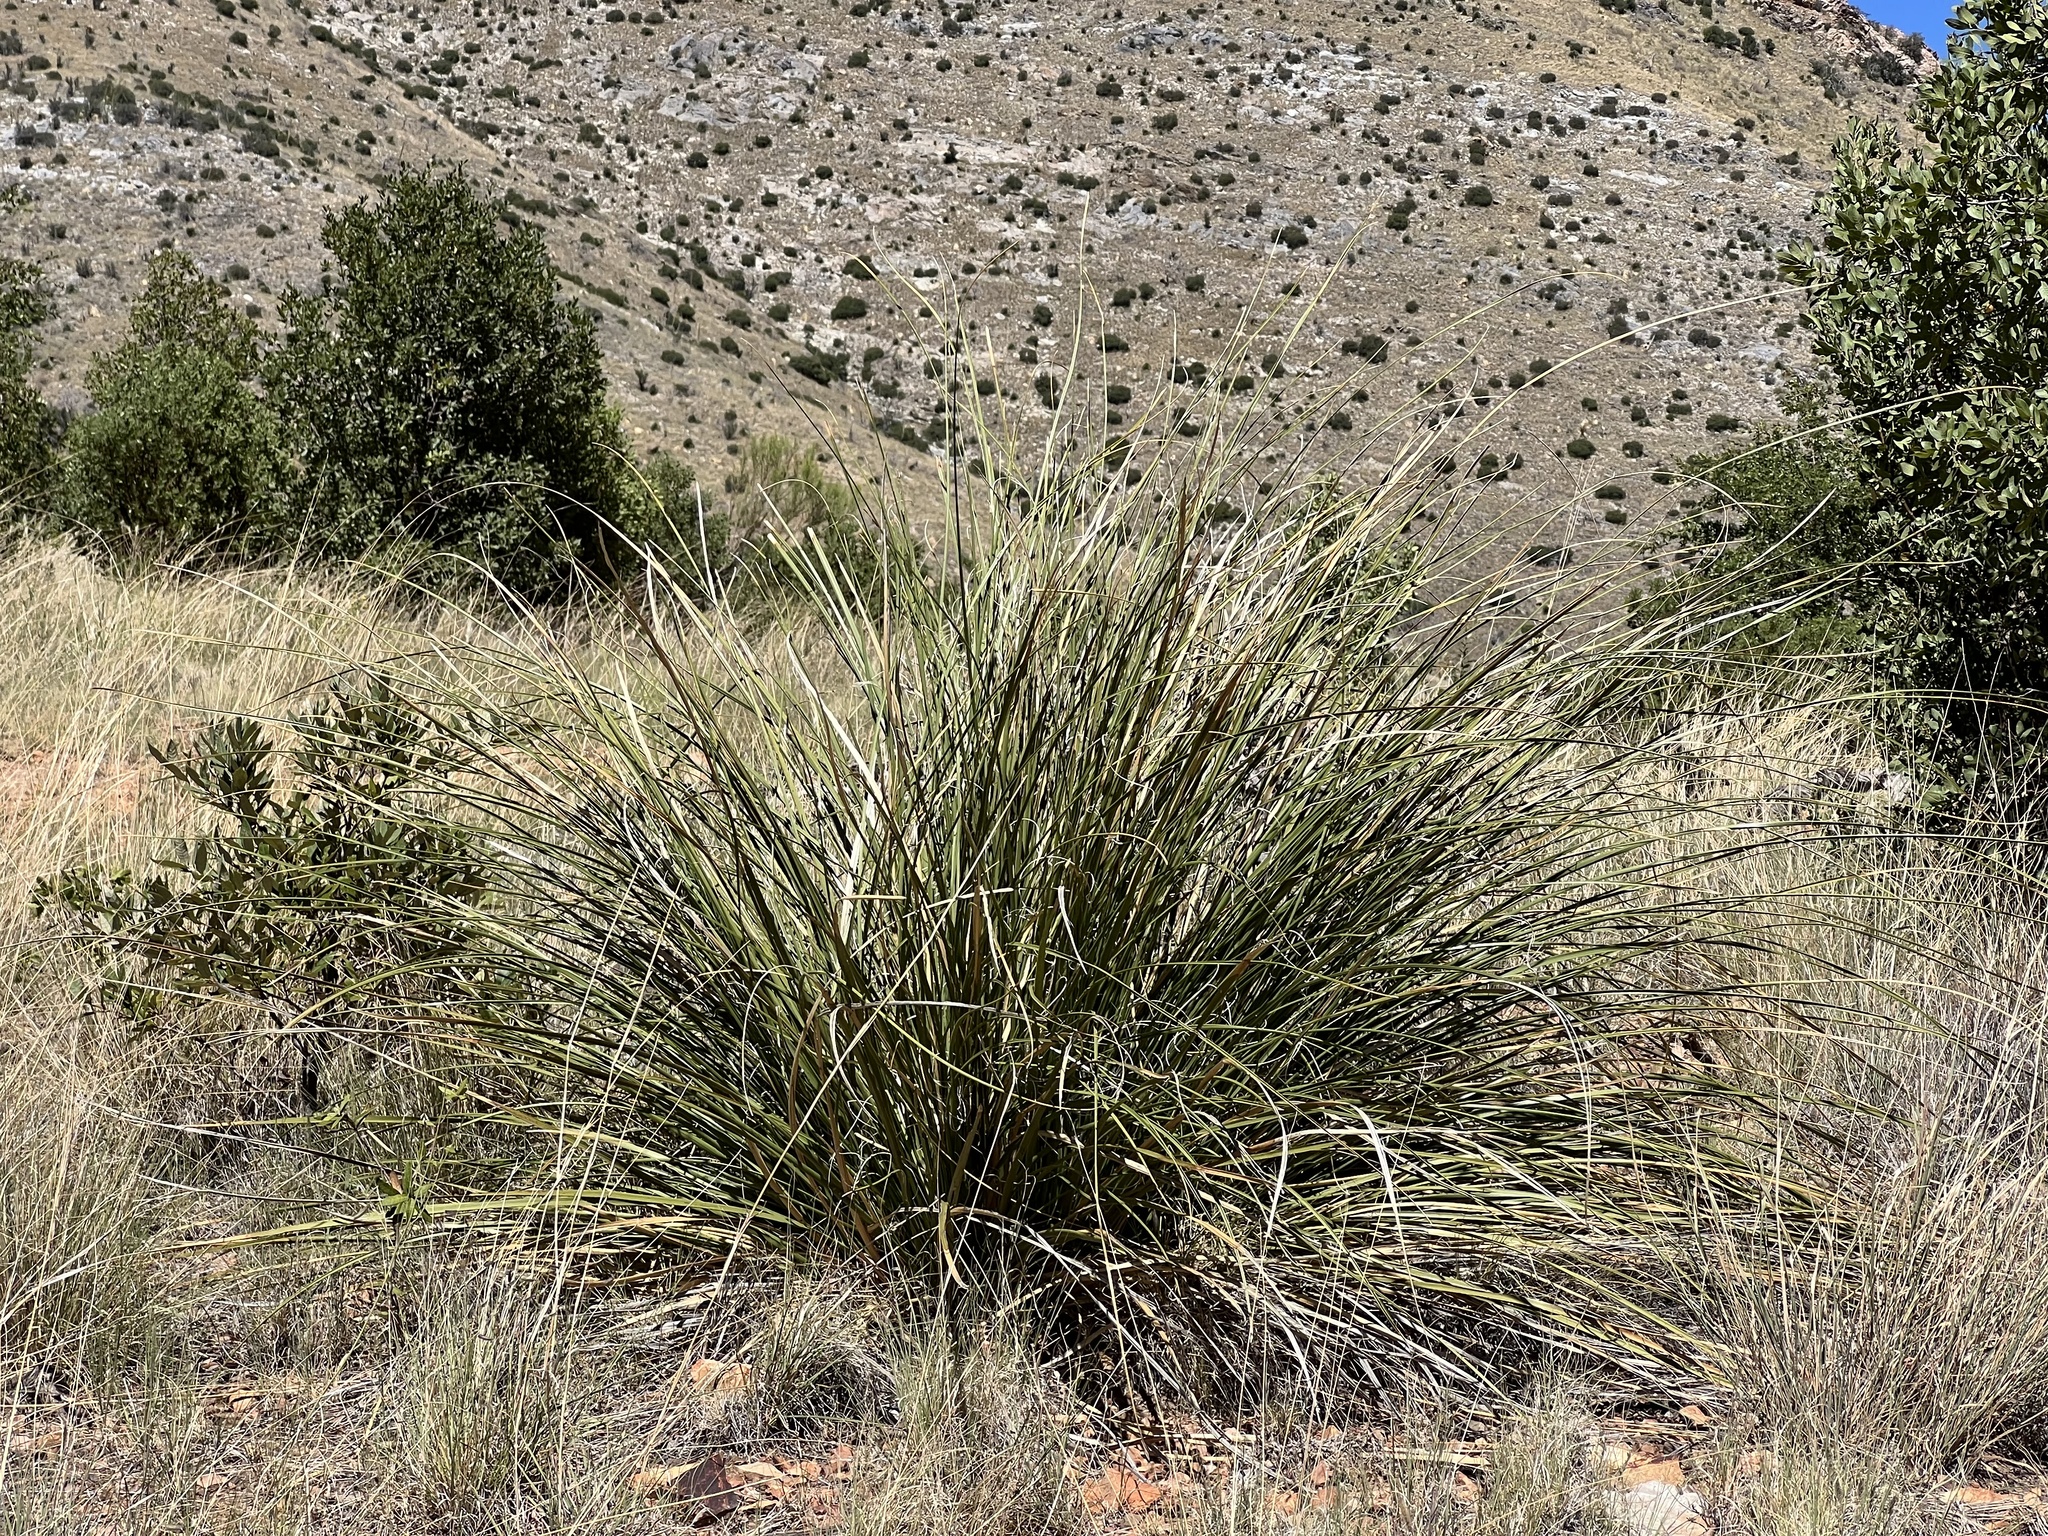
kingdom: Plantae
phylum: Tracheophyta
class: Liliopsida
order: Asparagales
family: Asparagaceae
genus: Nolina
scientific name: Nolina microcarpa
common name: Bear-grass
